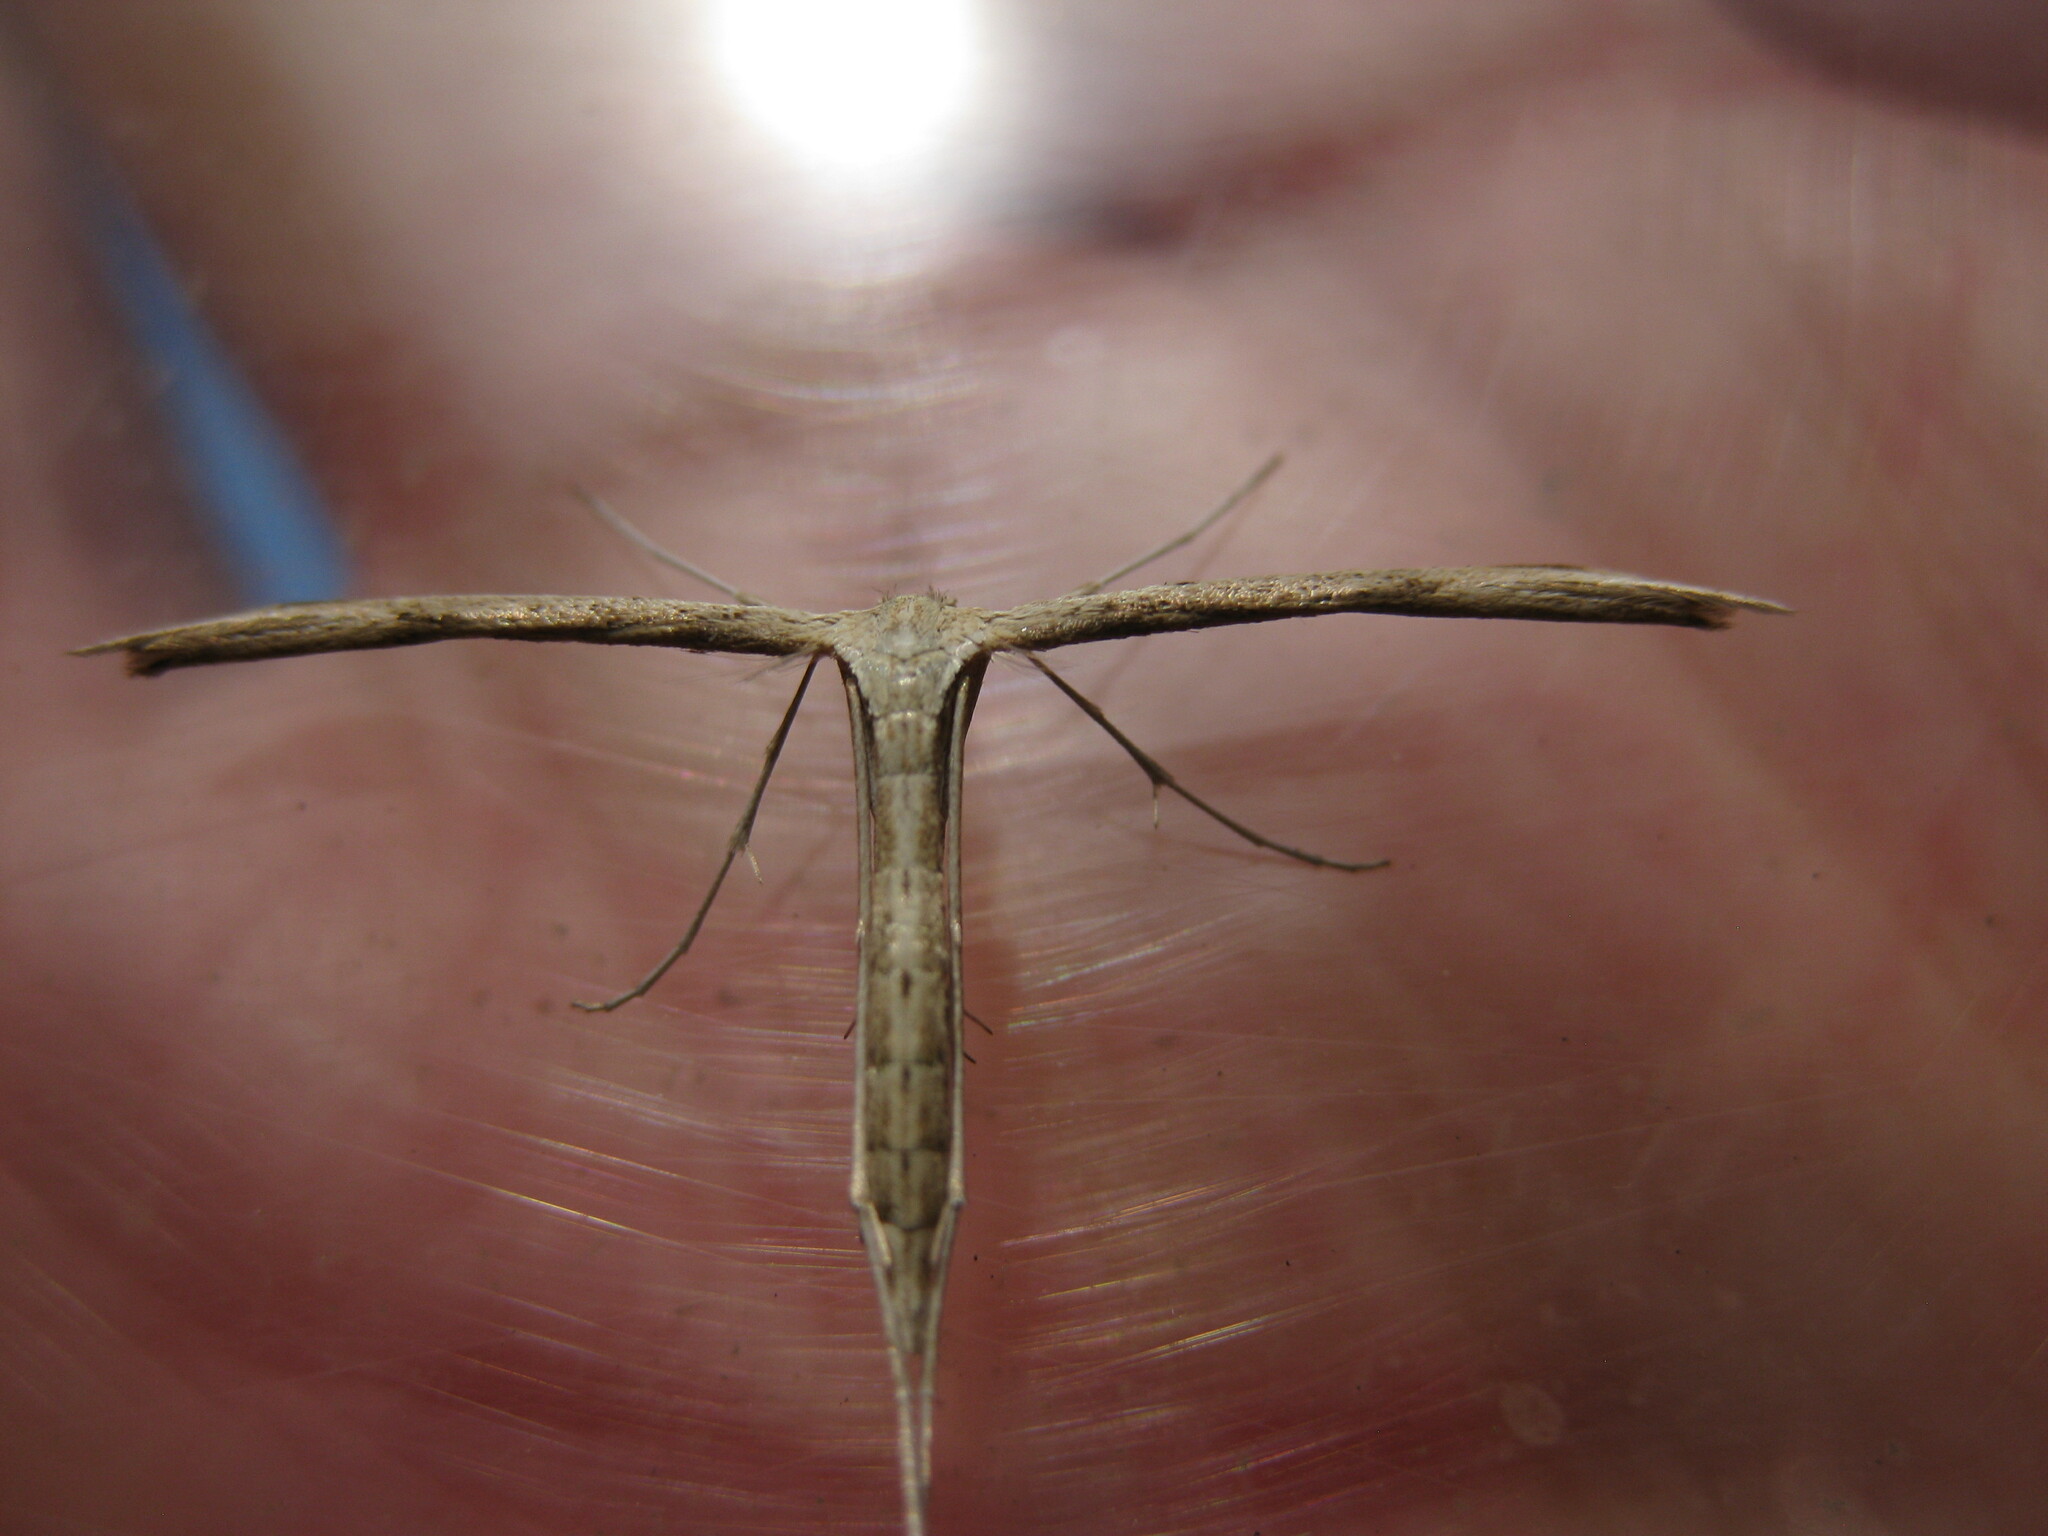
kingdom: Animalia
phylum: Arthropoda
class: Insecta
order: Lepidoptera
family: Pterophoridae
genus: Emmelina
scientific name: Emmelina monodactyla
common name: Common plume
